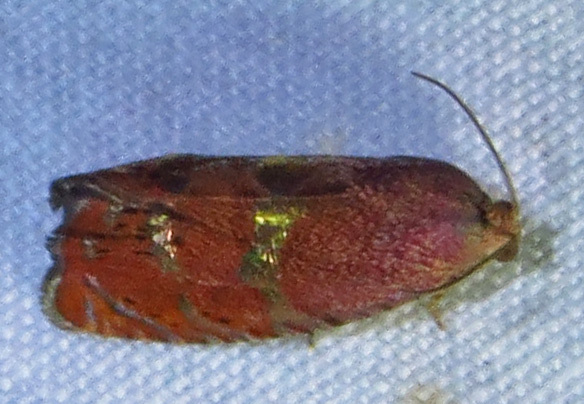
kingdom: Animalia
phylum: Arthropoda
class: Insecta
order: Lepidoptera
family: Tortricidae
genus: Cydia
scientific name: Cydia latiferreana
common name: Filbertworm moth
